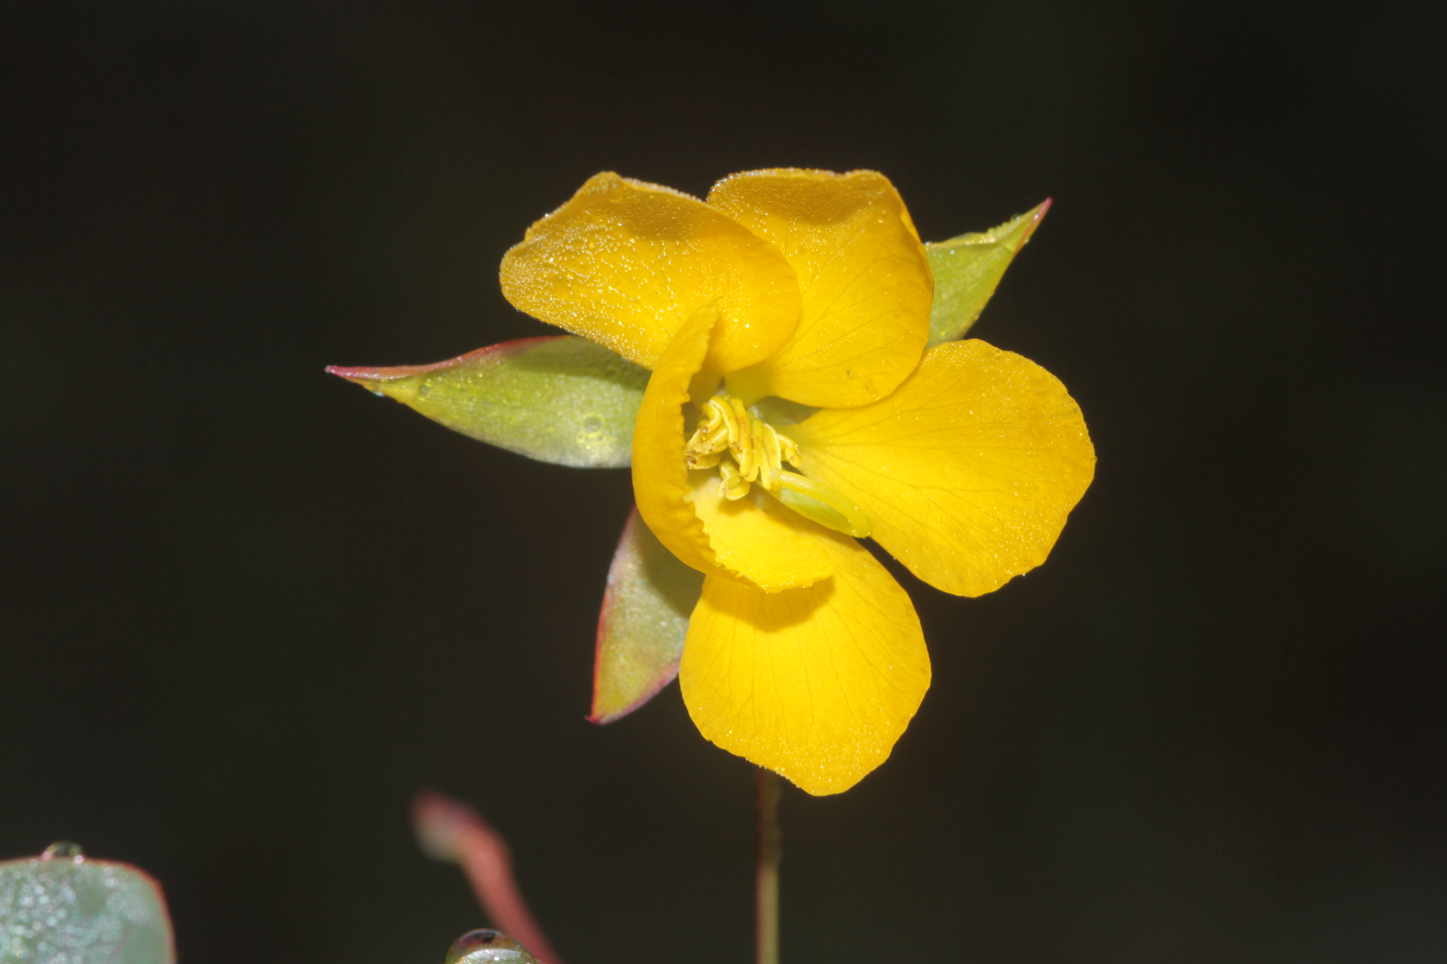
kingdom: Plantae
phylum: Tracheophyta
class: Magnoliopsida
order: Fabales
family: Fabaceae
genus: Chamaecrista
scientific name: Chamaecrista diphylla
